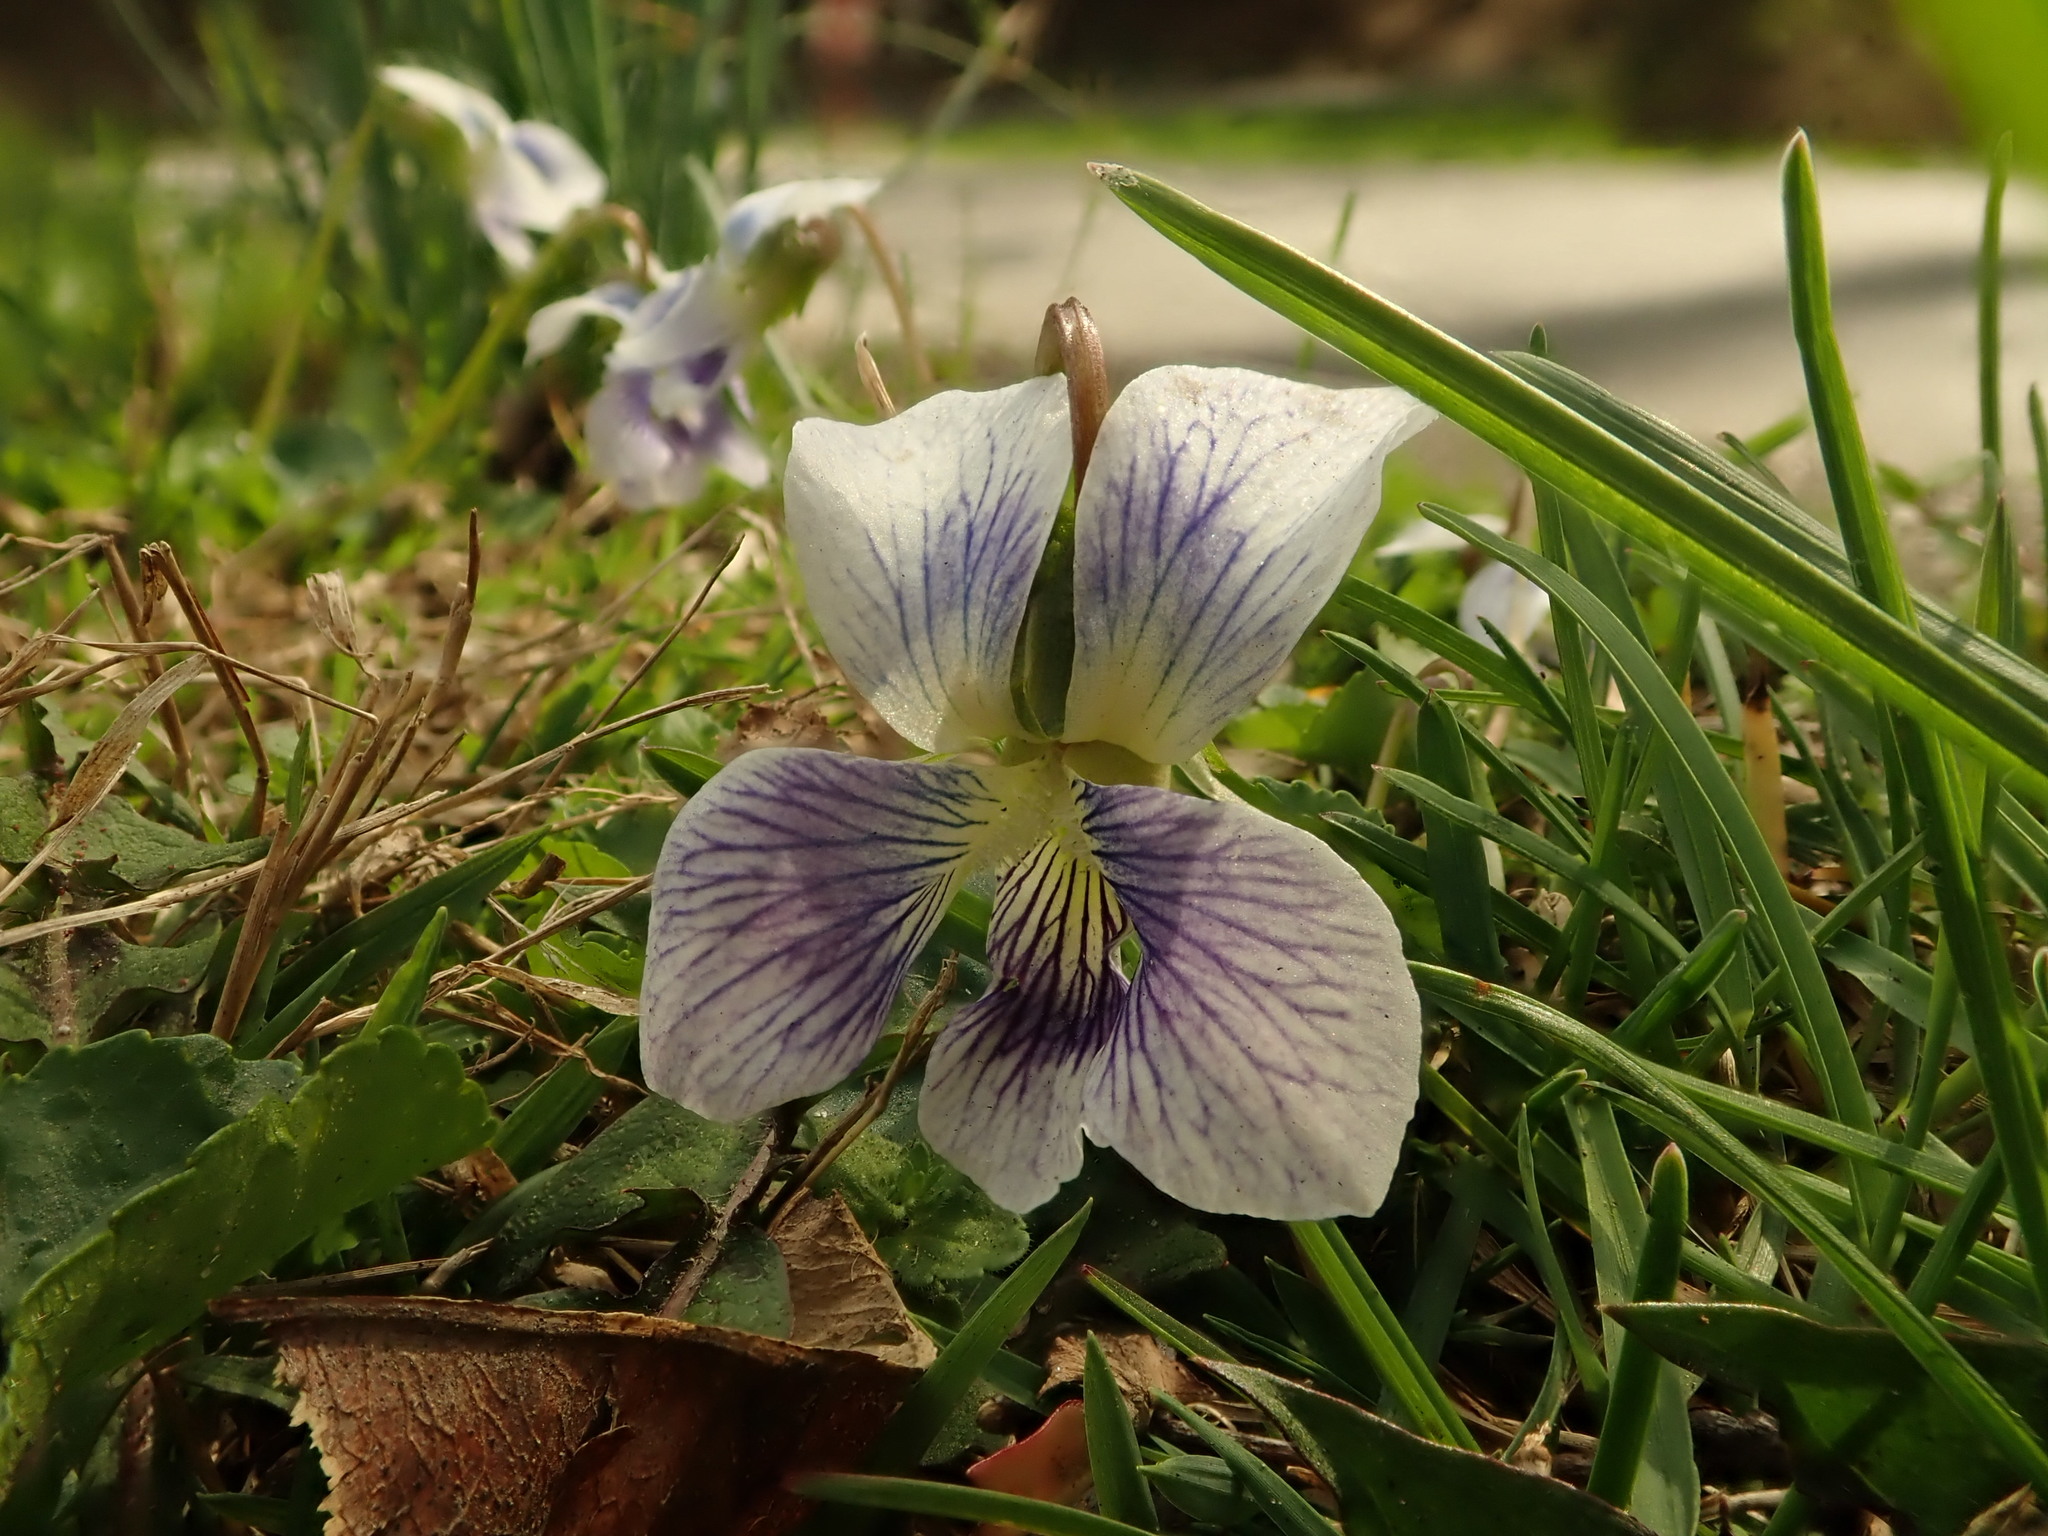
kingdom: Plantae
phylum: Tracheophyta
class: Magnoliopsida
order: Malpighiales
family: Violaceae
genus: Viola
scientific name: Viola sororia
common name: Dooryard violet
